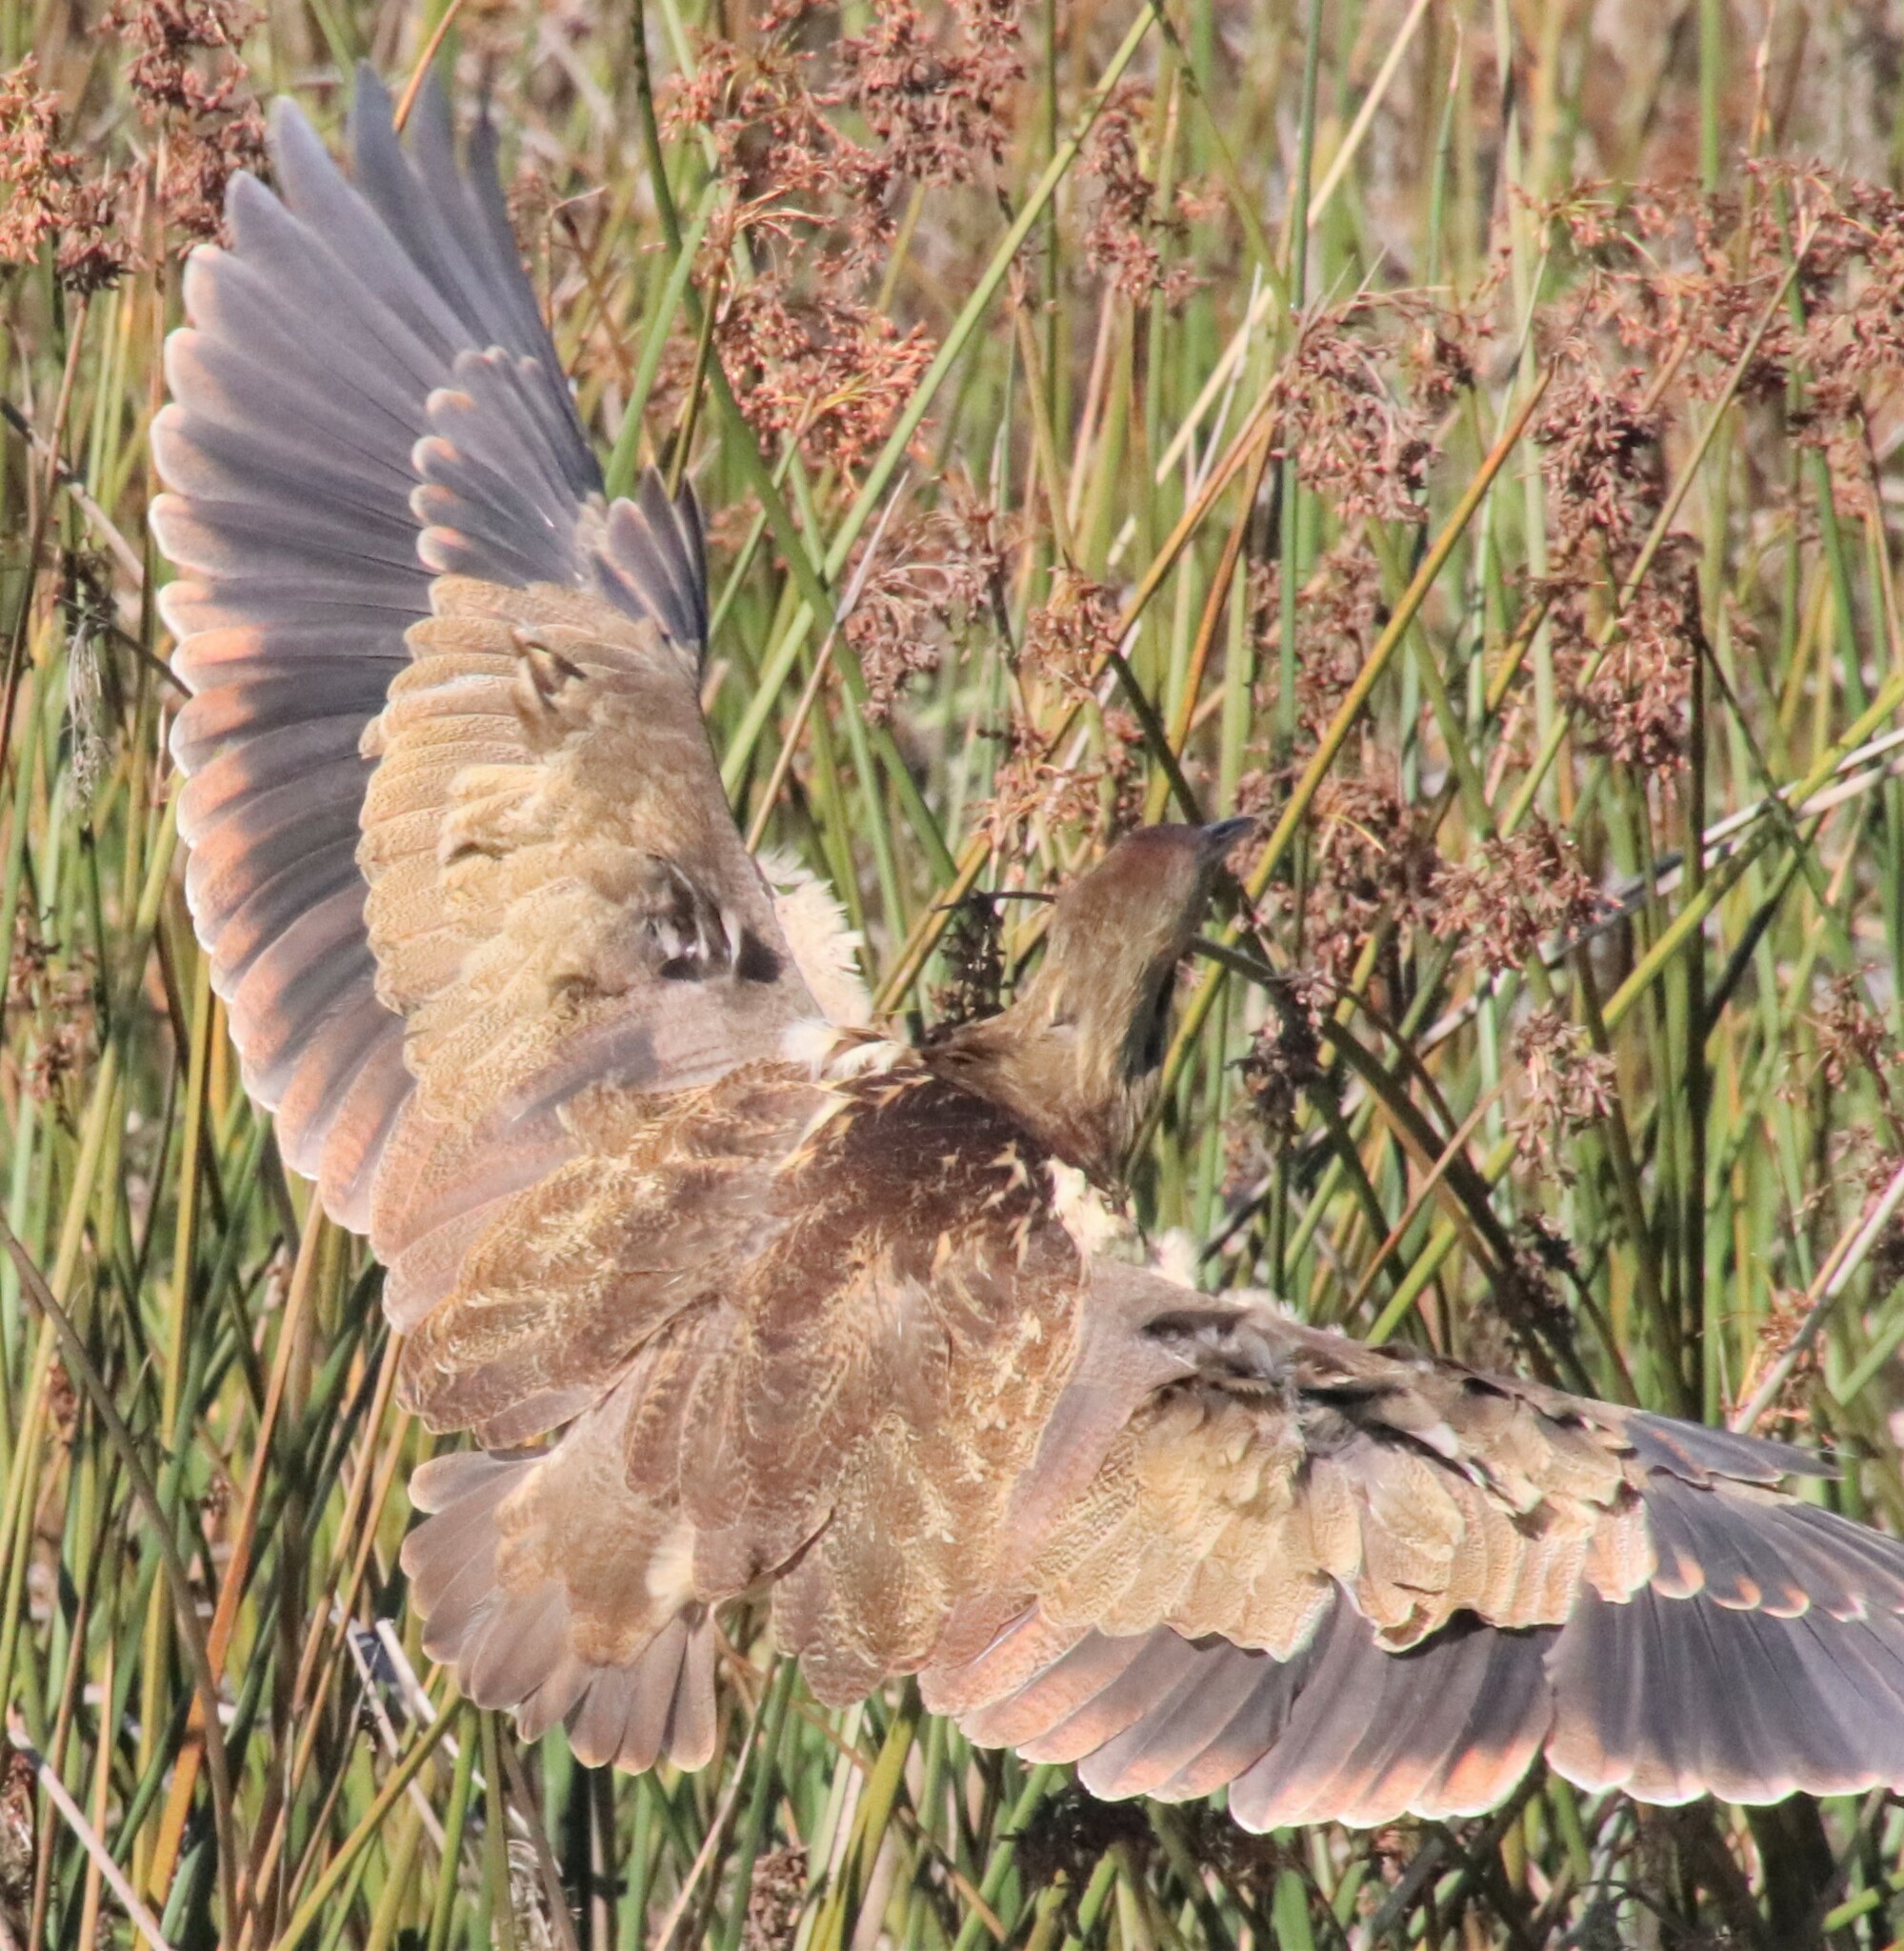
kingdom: Animalia
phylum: Chordata
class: Aves
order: Pelecaniformes
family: Ardeidae
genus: Botaurus
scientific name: Botaurus lentiginosus
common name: American bittern
